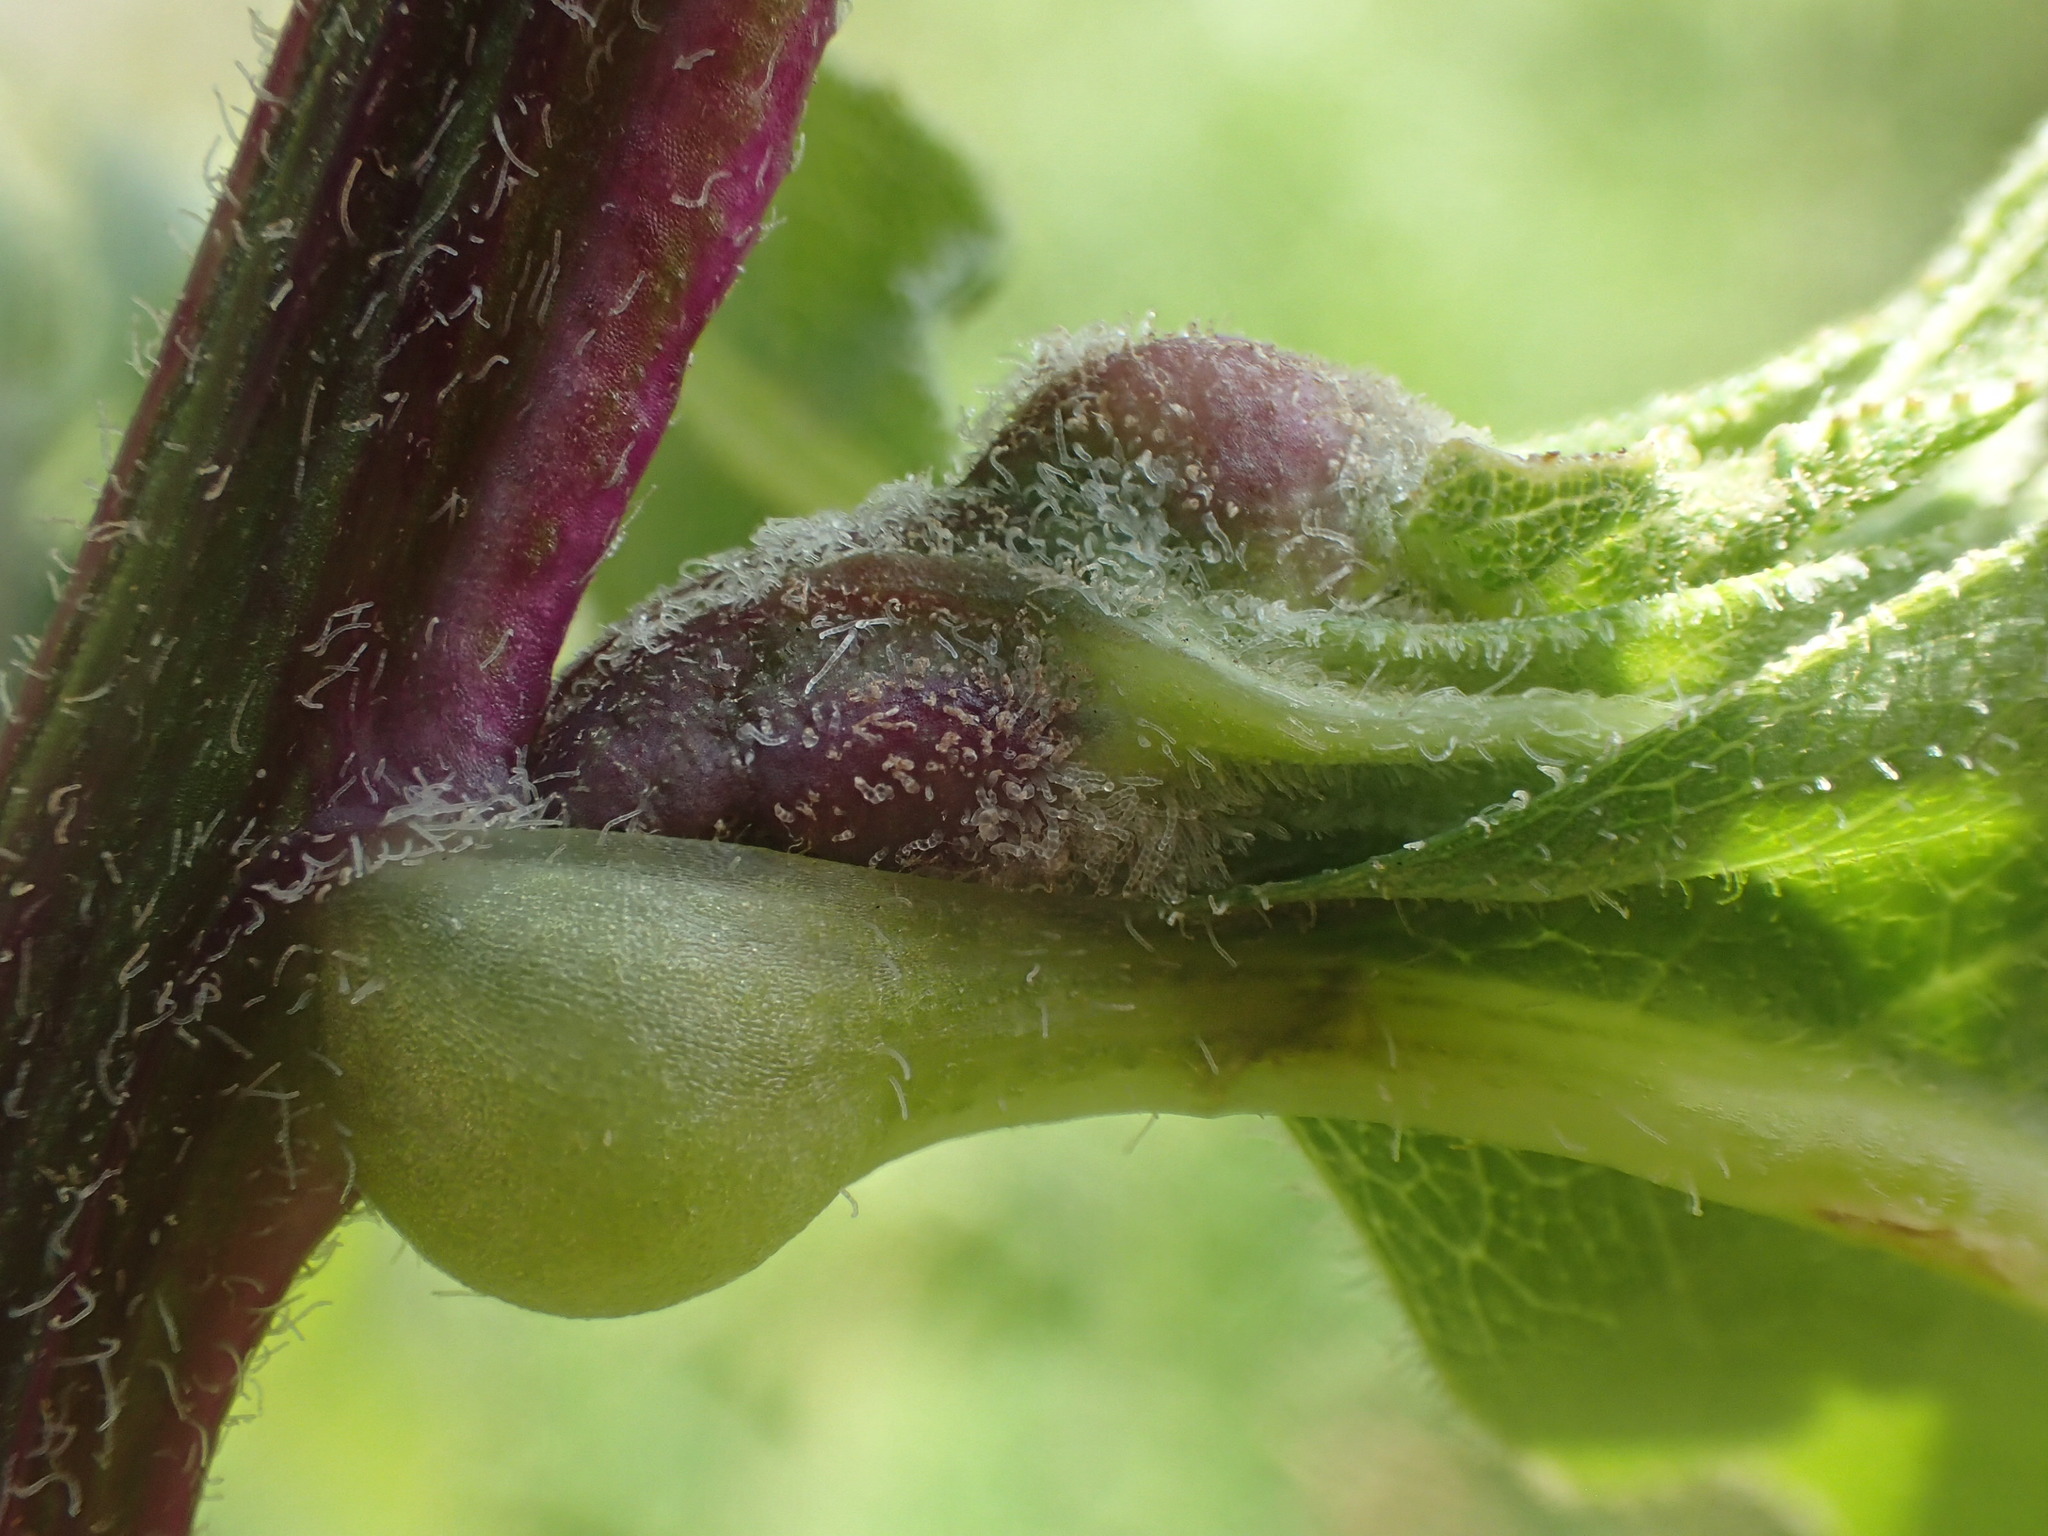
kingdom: Animalia
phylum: Arthropoda
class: Insecta
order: Diptera
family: Cecidomyiidae
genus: Contarinia
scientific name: Contarinia aequalis
